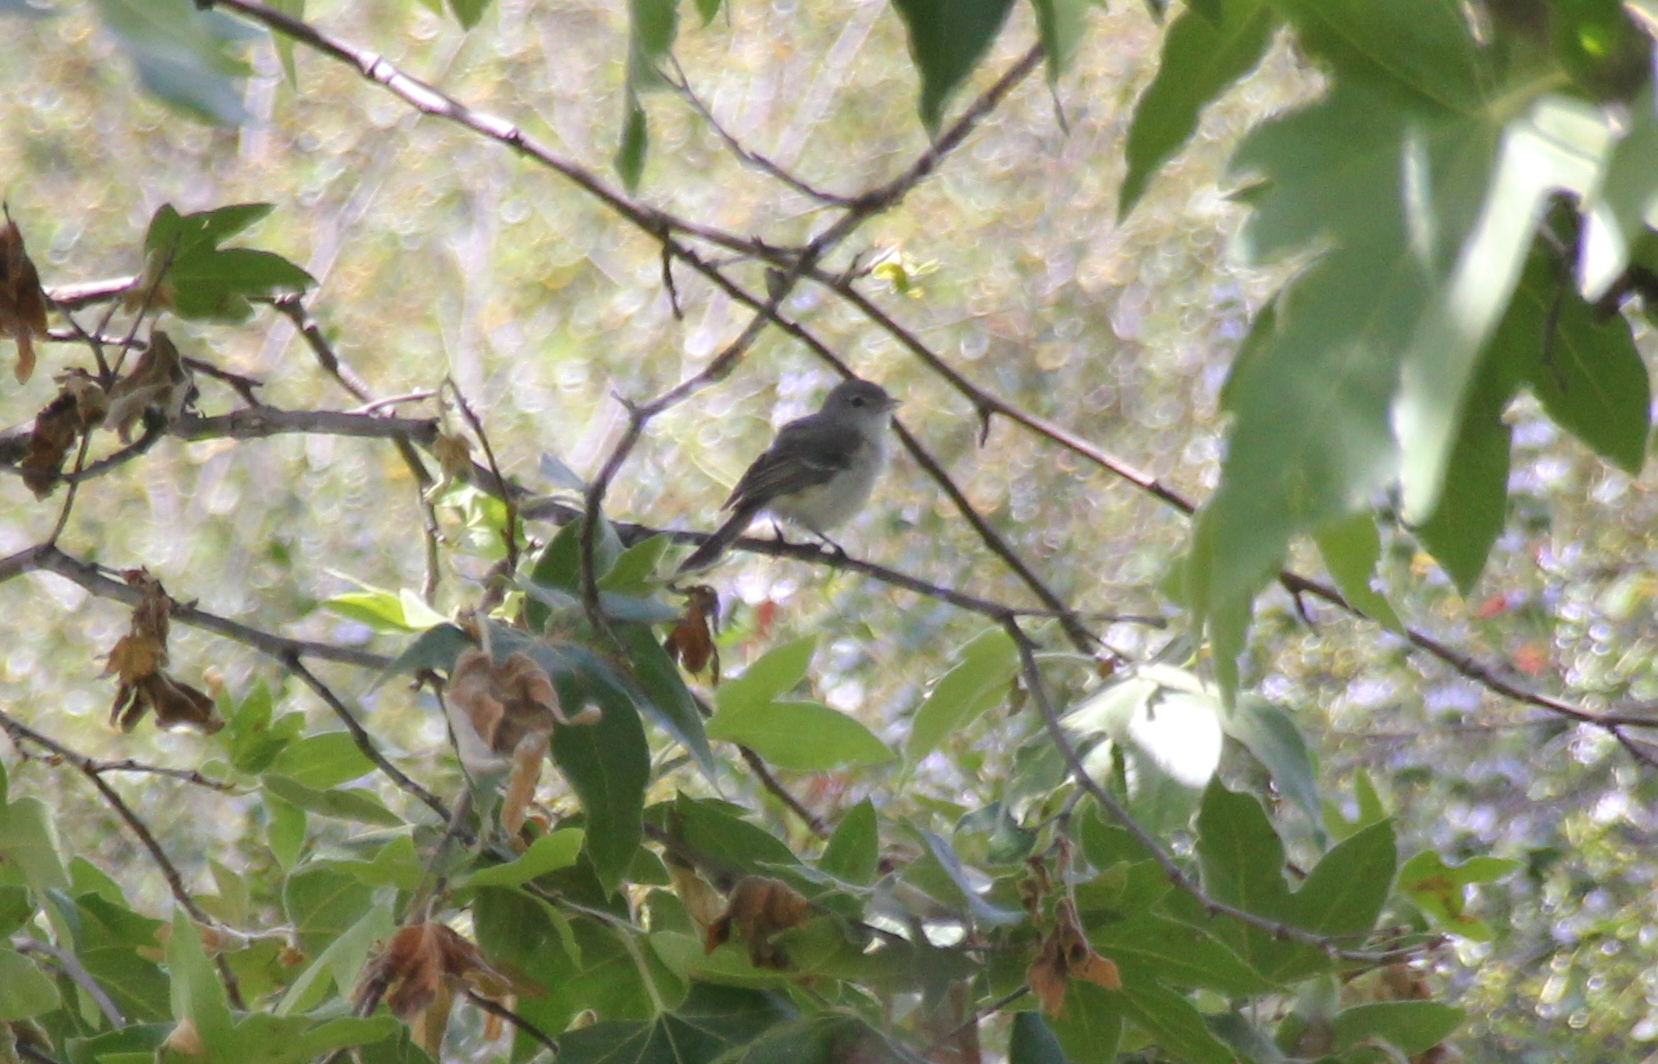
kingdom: Animalia
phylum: Chordata
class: Aves
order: Passeriformes
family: Vireonidae
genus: Vireo
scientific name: Vireo bellii
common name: Bell's vireo
